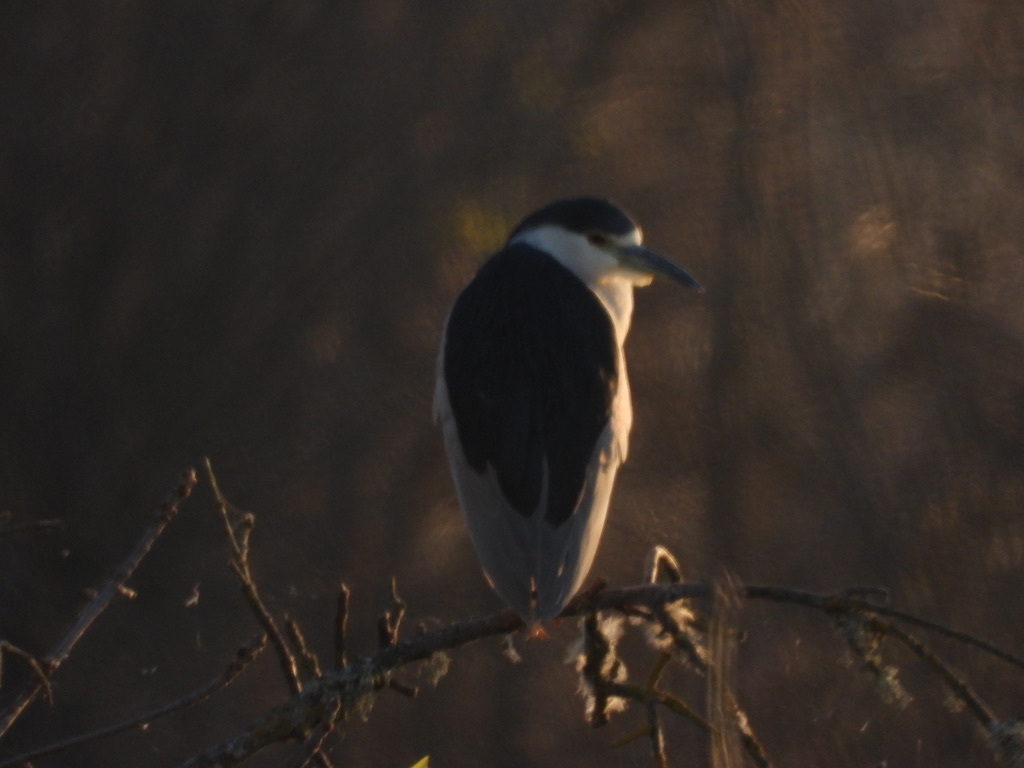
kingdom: Animalia
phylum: Chordata
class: Aves
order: Pelecaniformes
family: Ardeidae
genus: Nycticorax
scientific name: Nycticorax nycticorax
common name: Black-crowned night heron
